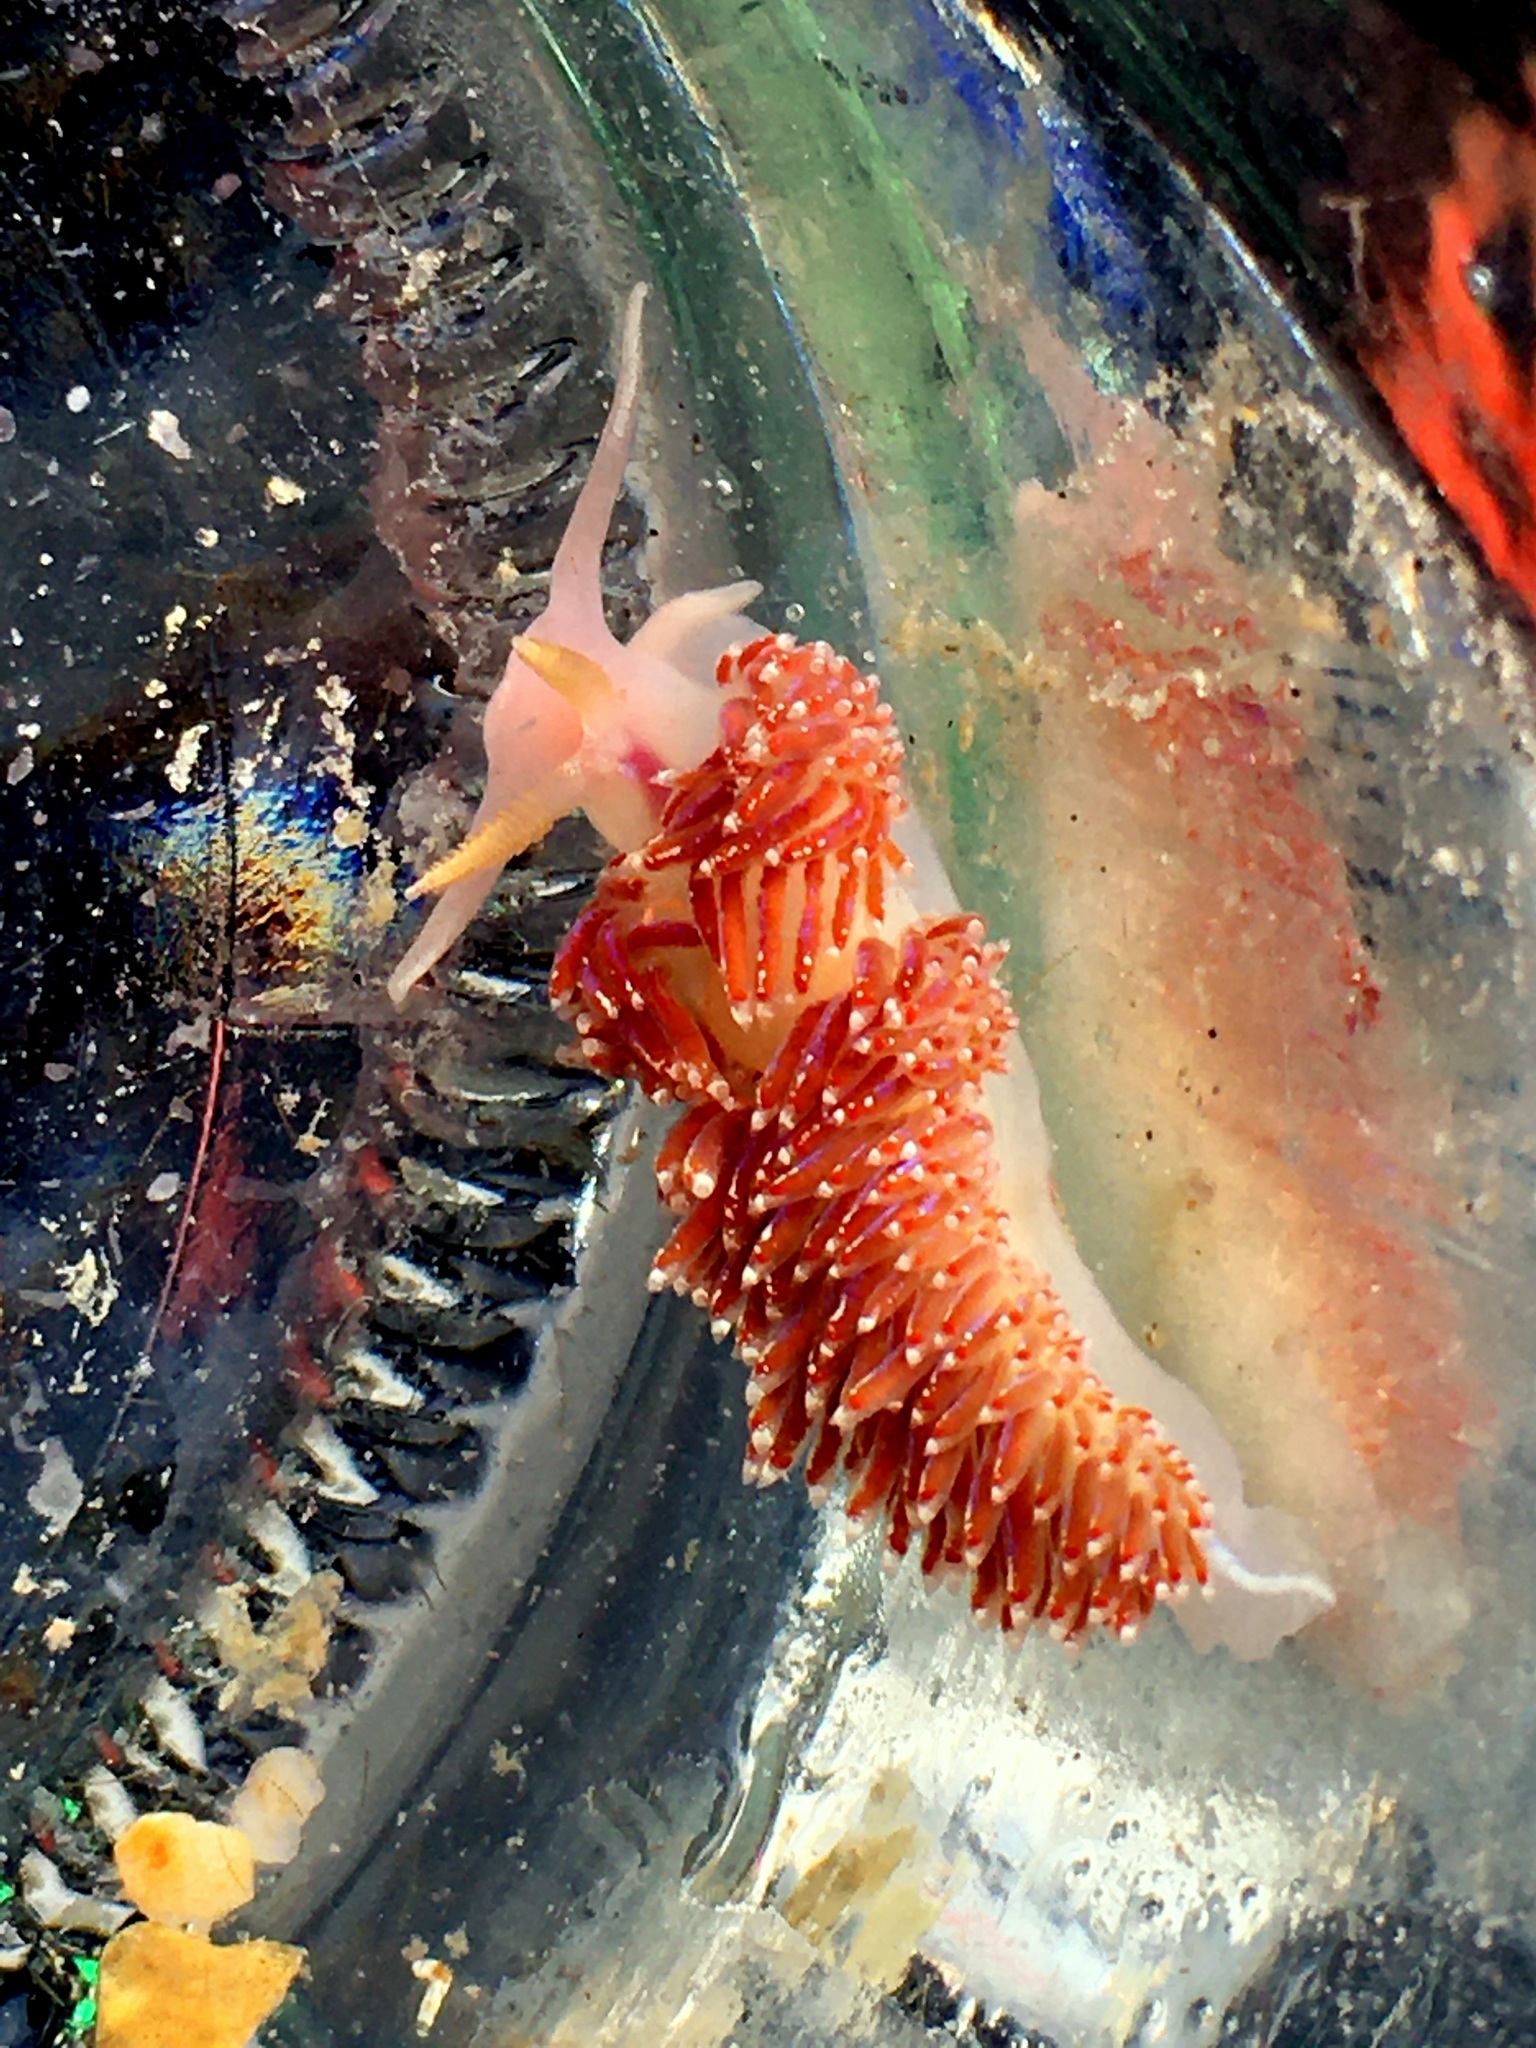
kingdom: Animalia
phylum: Mollusca
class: Gastropoda
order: Nudibranchia
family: Facelinidae
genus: Facelina
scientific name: Facelina auriculata
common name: Slender facelina
